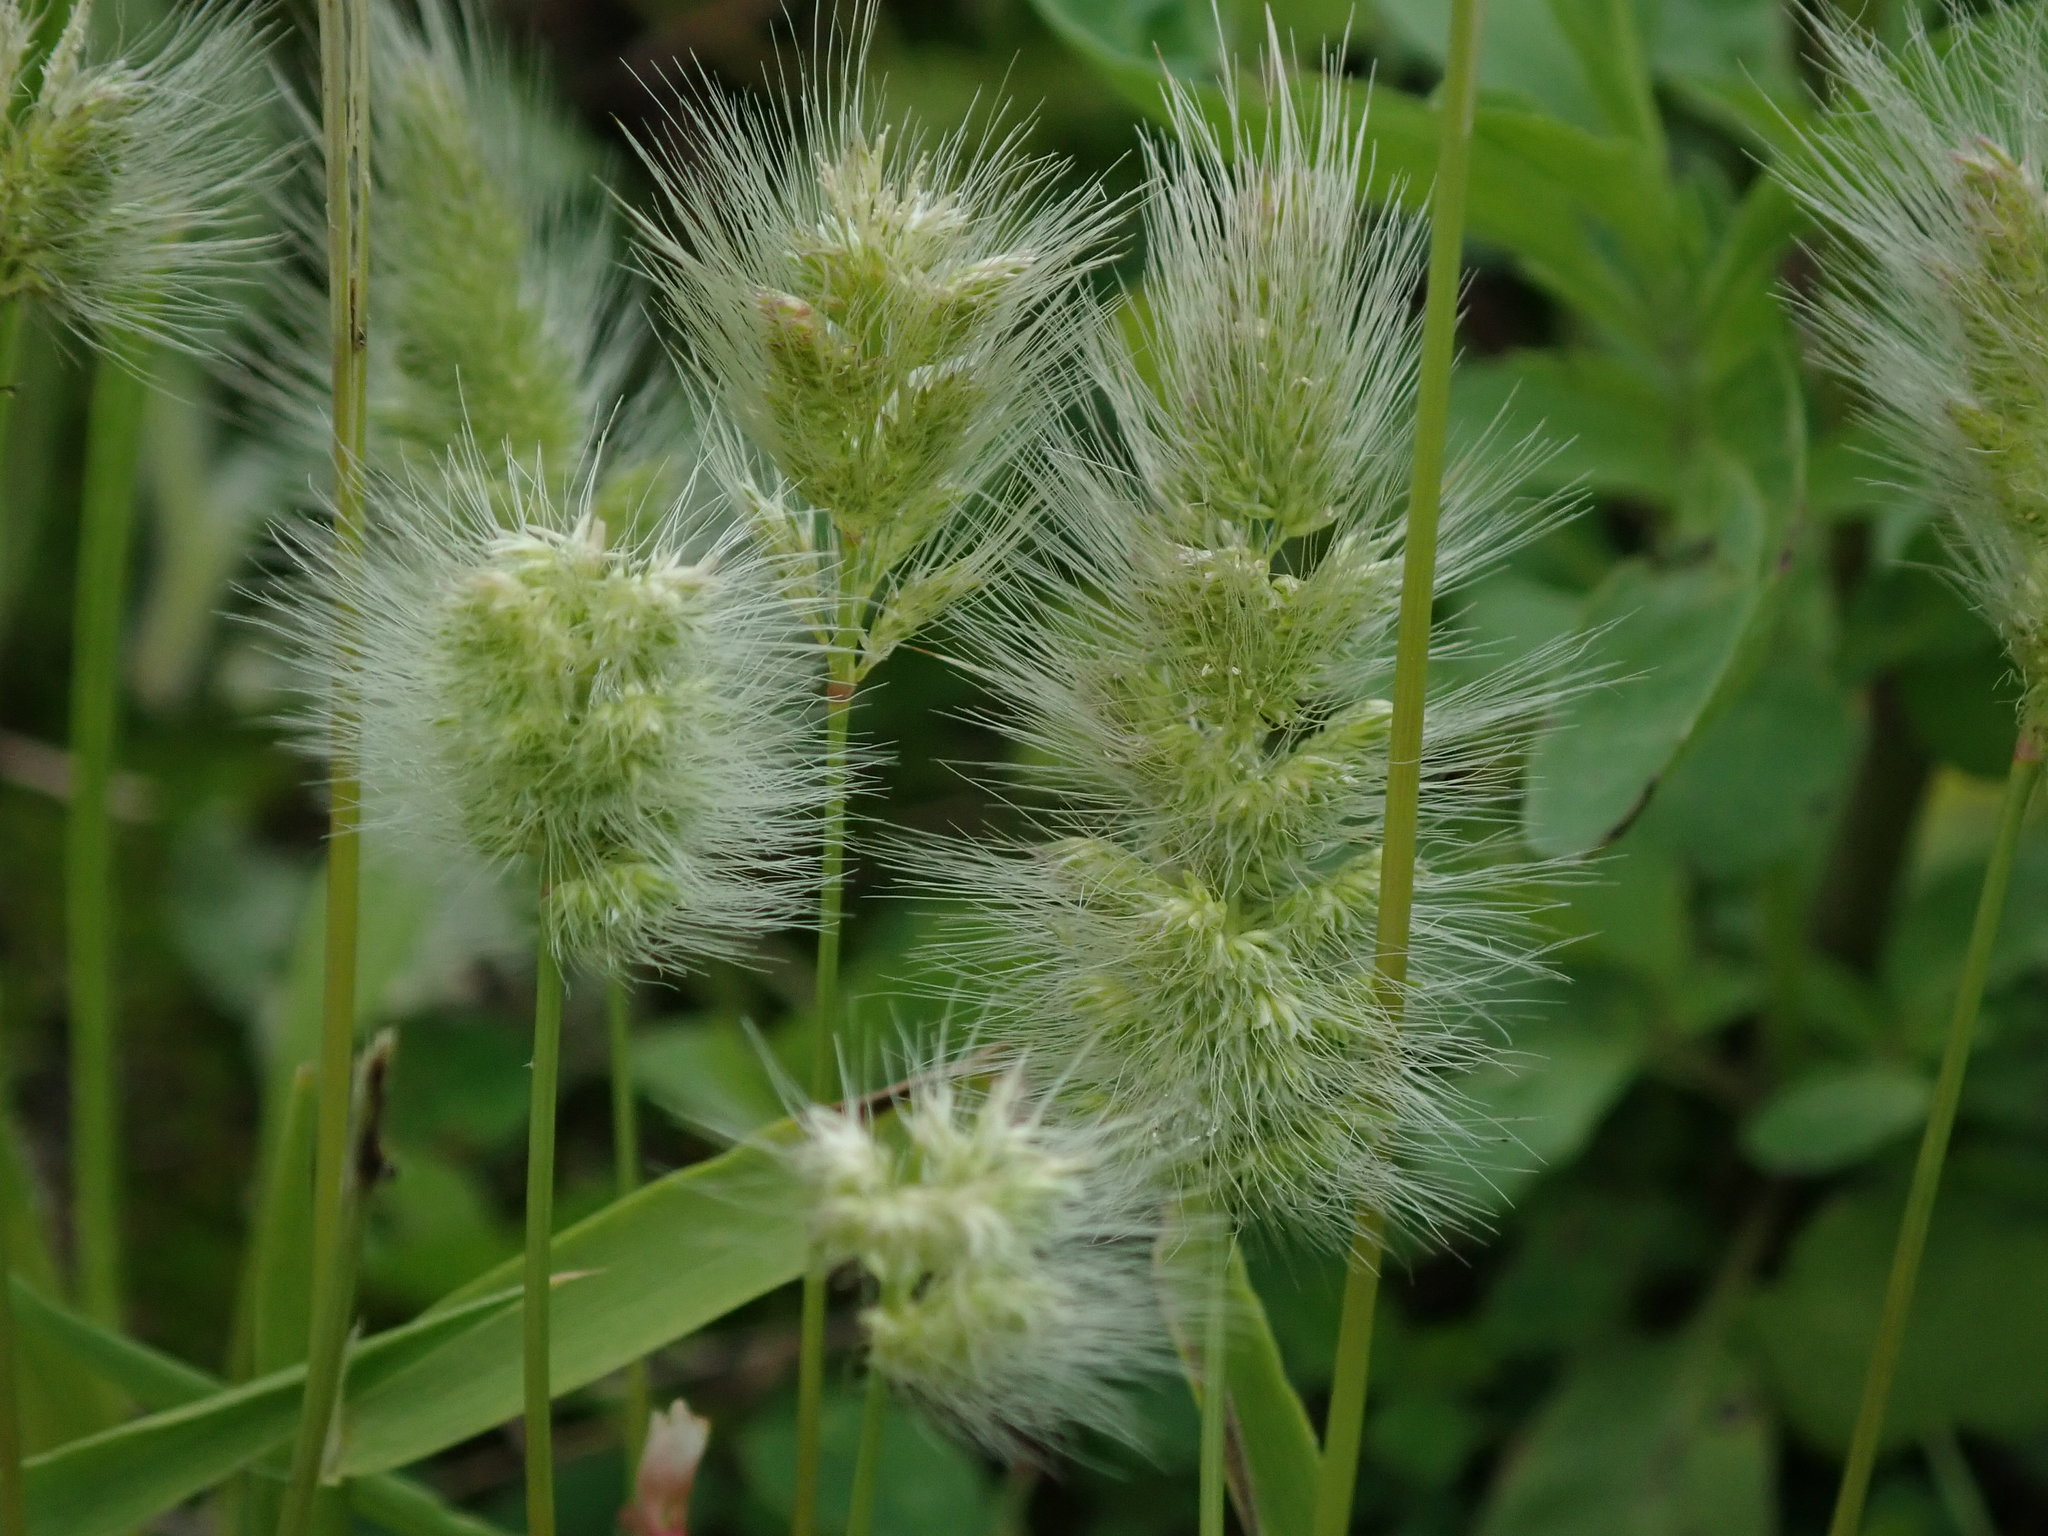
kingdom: Plantae
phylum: Tracheophyta
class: Liliopsida
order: Poales
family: Poaceae
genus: Polypogon
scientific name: Polypogon monspeliensis
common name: Annual rabbitsfoot grass
